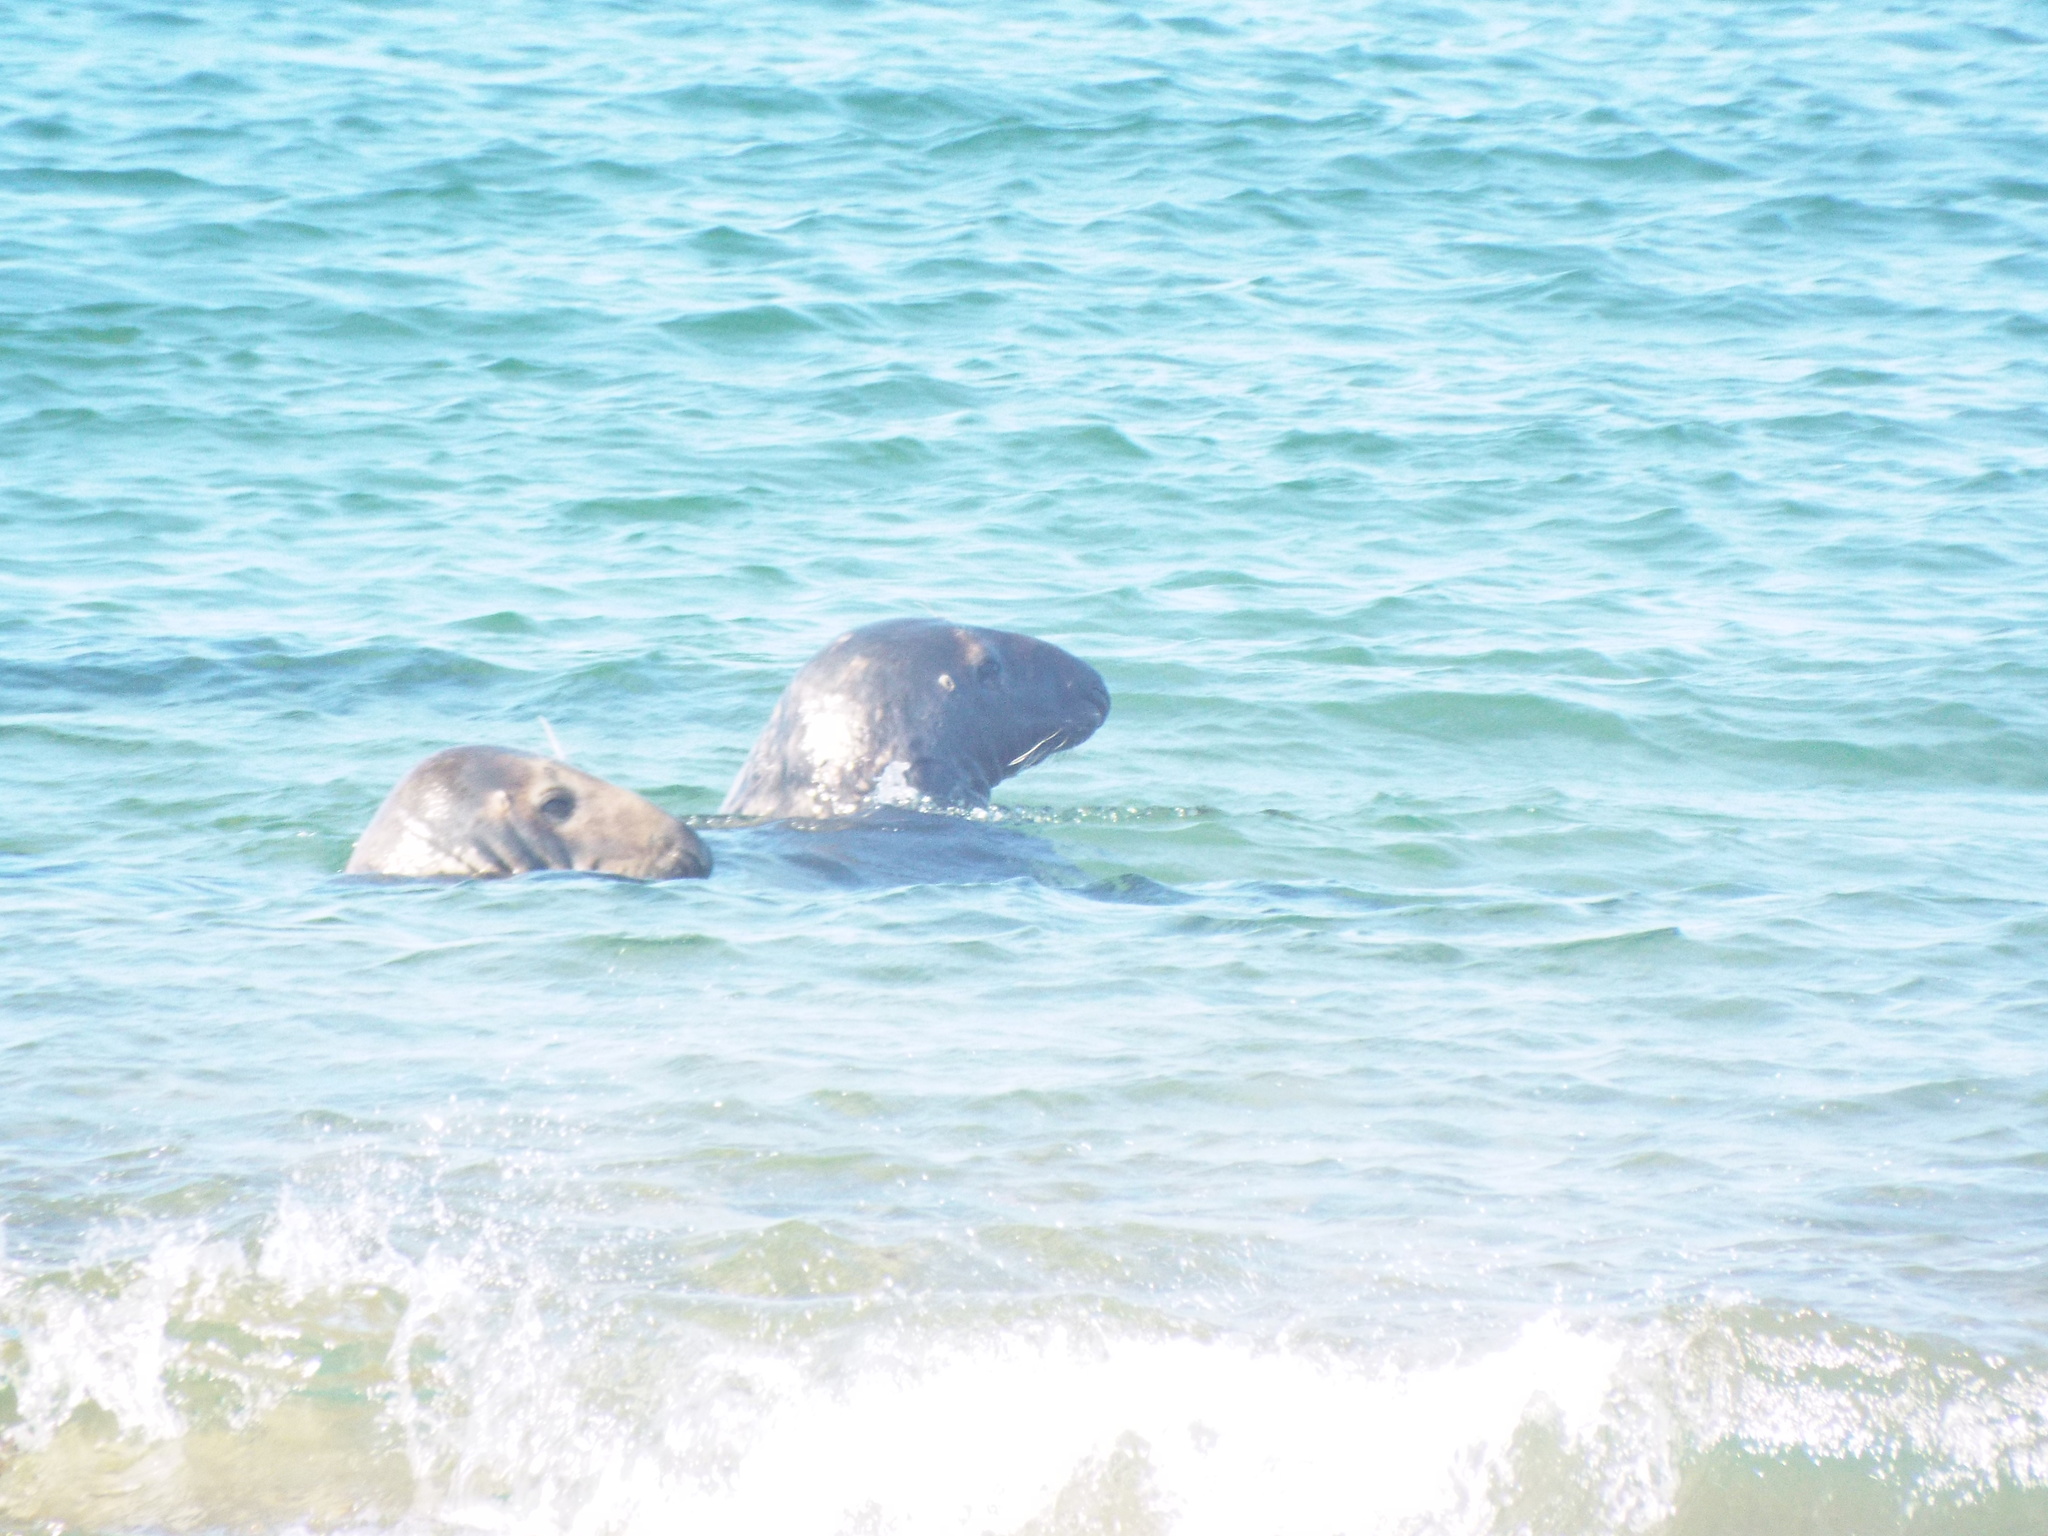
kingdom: Animalia
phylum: Chordata
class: Mammalia
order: Carnivora
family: Phocidae
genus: Halichoerus
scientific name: Halichoerus grypus
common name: Grey seal
